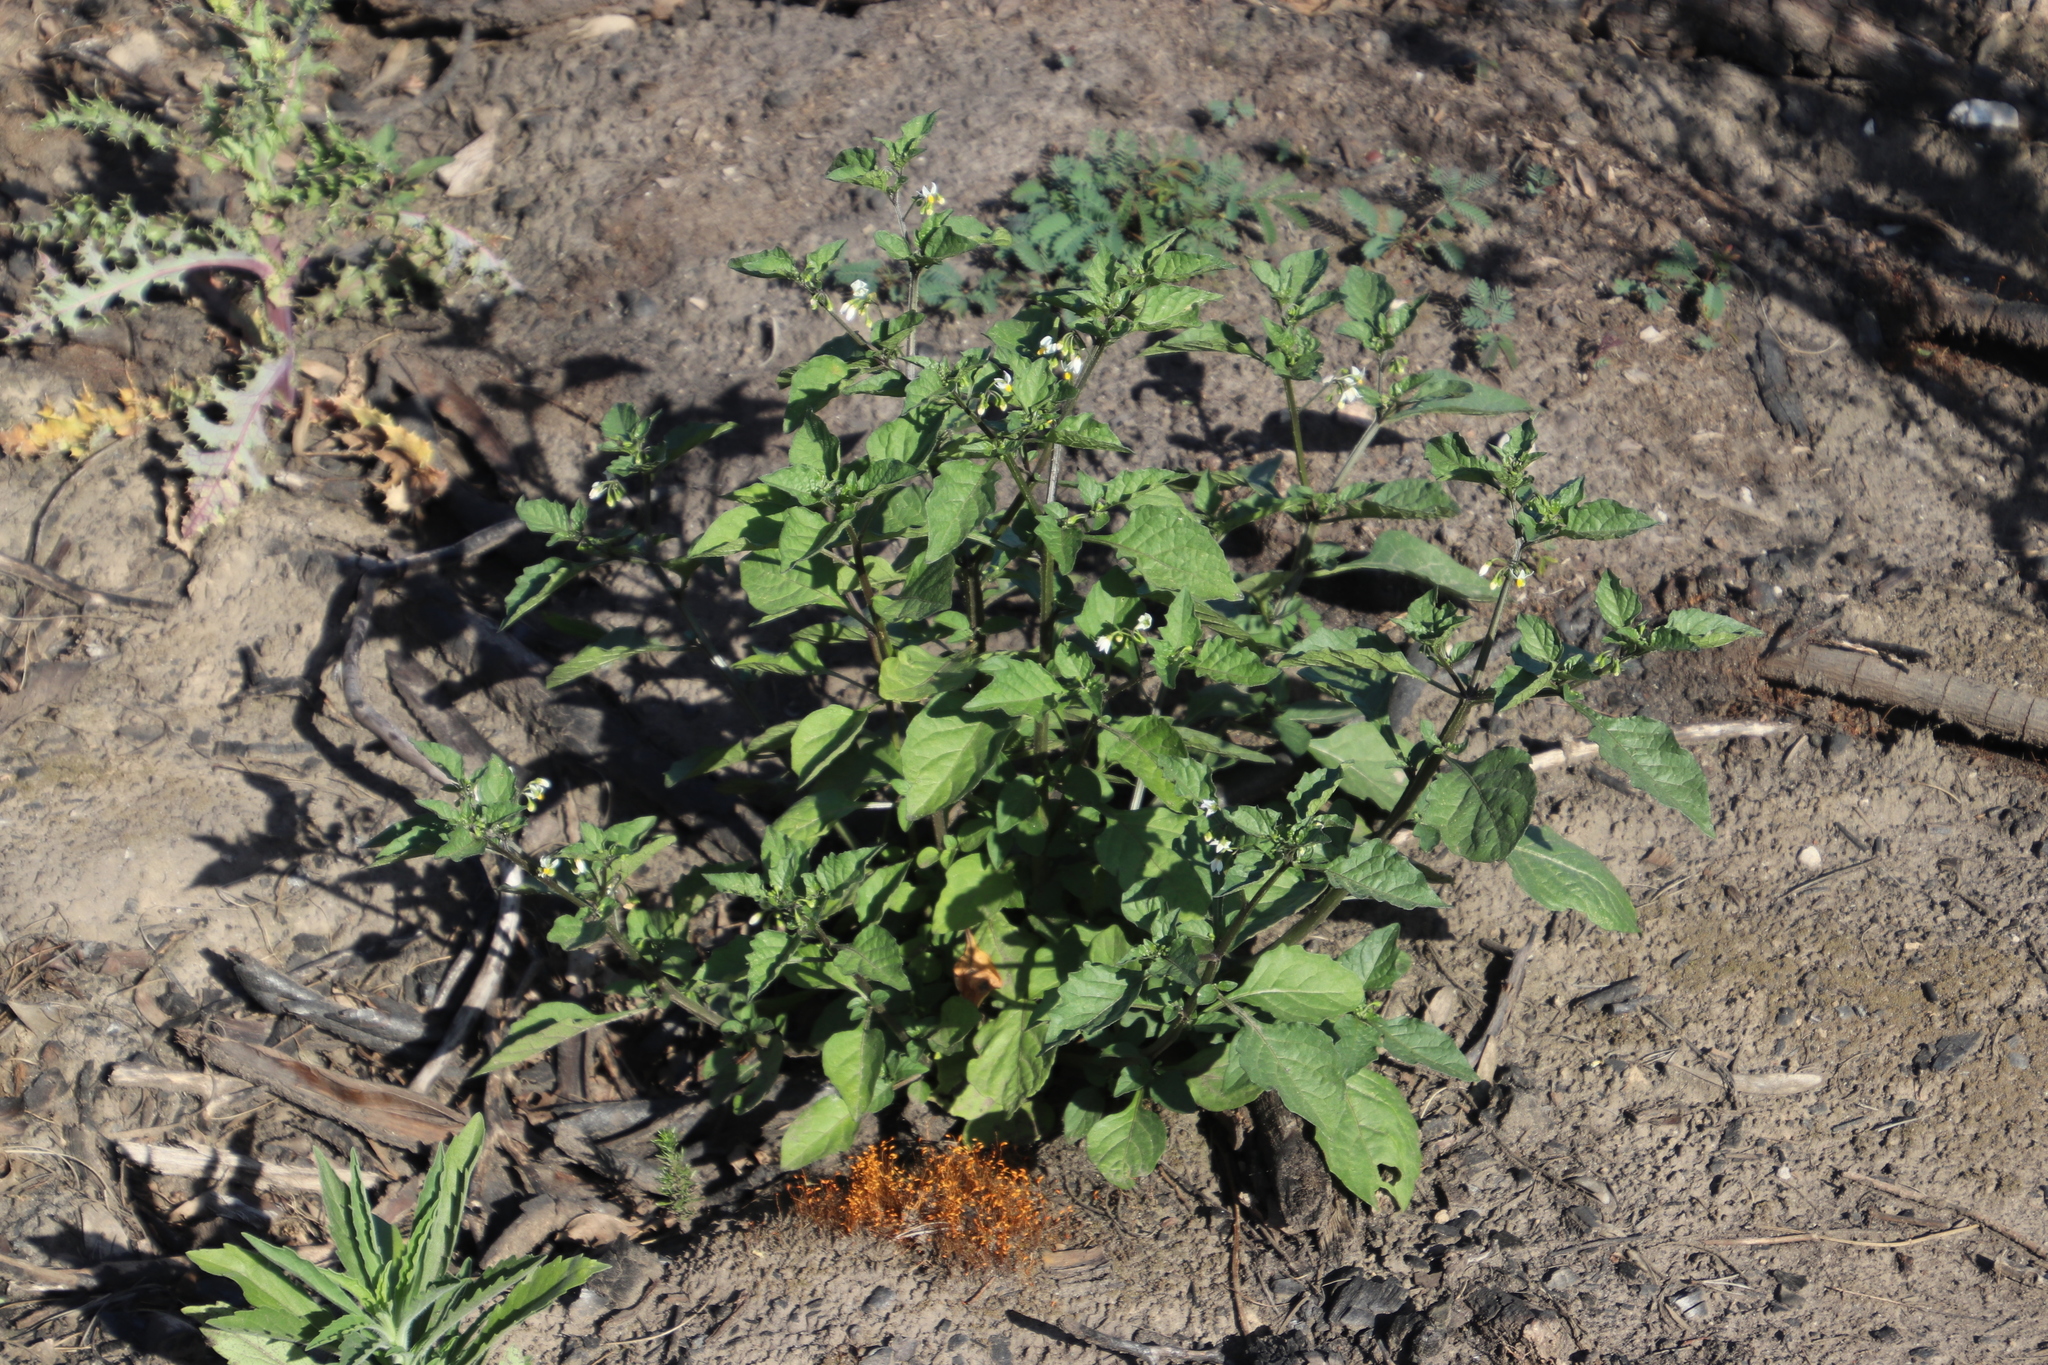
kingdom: Plantae
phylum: Tracheophyta
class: Magnoliopsida
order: Solanales
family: Solanaceae
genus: Solanum
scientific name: Solanum nigrum
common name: Black nightshade
